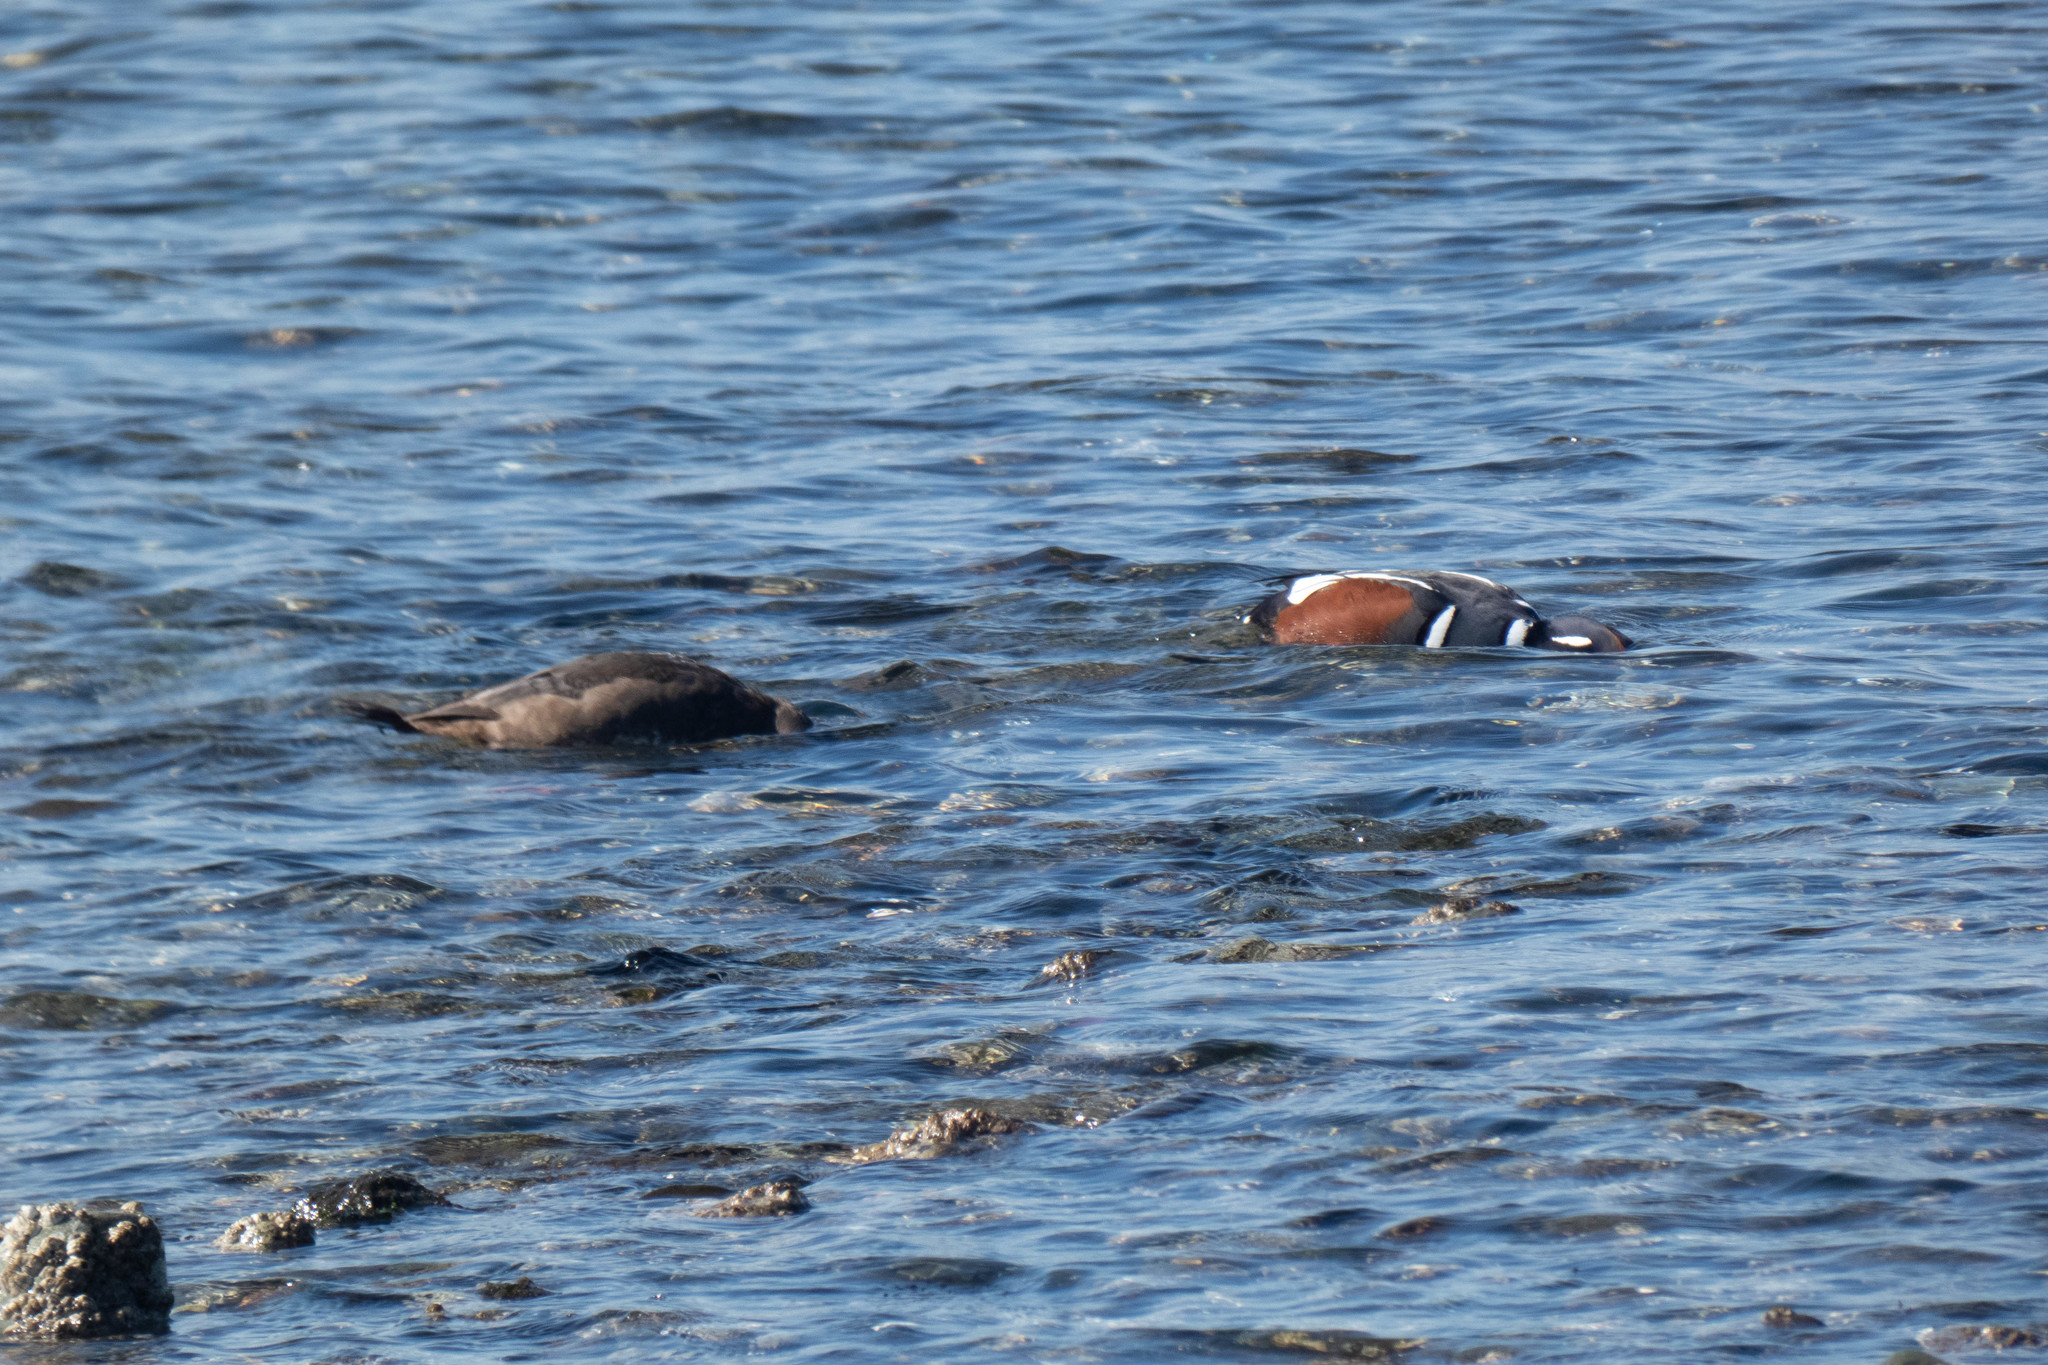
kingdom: Animalia
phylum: Chordata
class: Aves
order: Anseriformes
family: Anatidae
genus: Histrionicus
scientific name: Histrionicus histrionicus
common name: Harlequin duck
